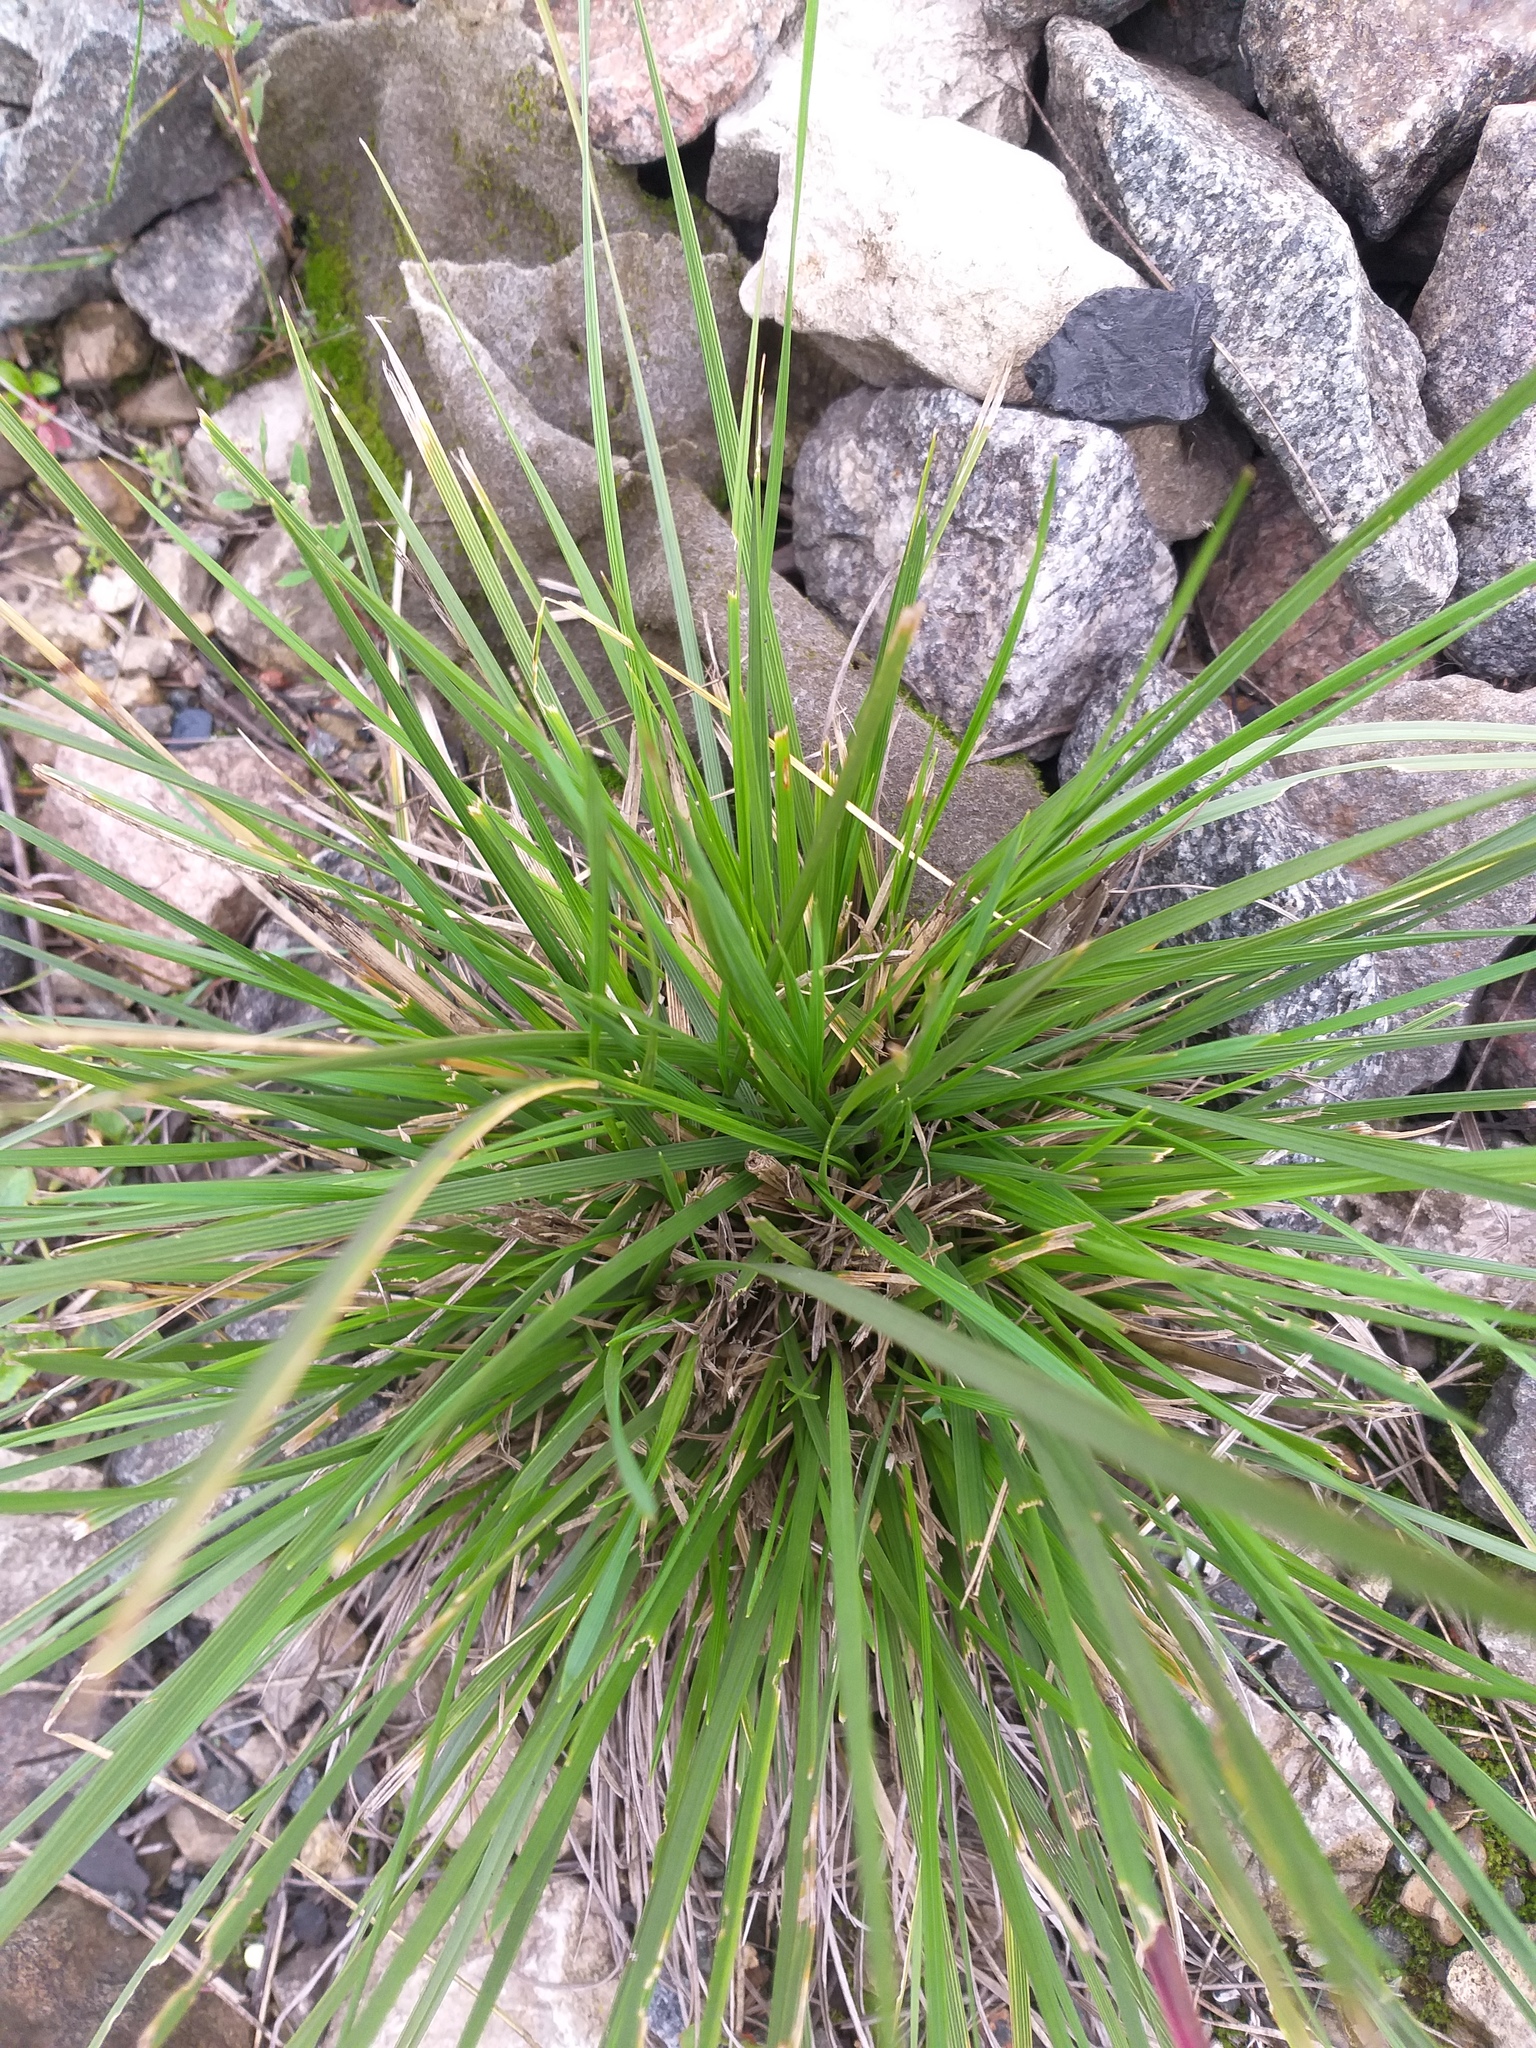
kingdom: Plantae
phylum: Tracheophyta
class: Liliopsida
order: Poales
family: Poaceae
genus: Deschampsia
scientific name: Deschampsia cespitosa
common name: Tufted hair-grass
